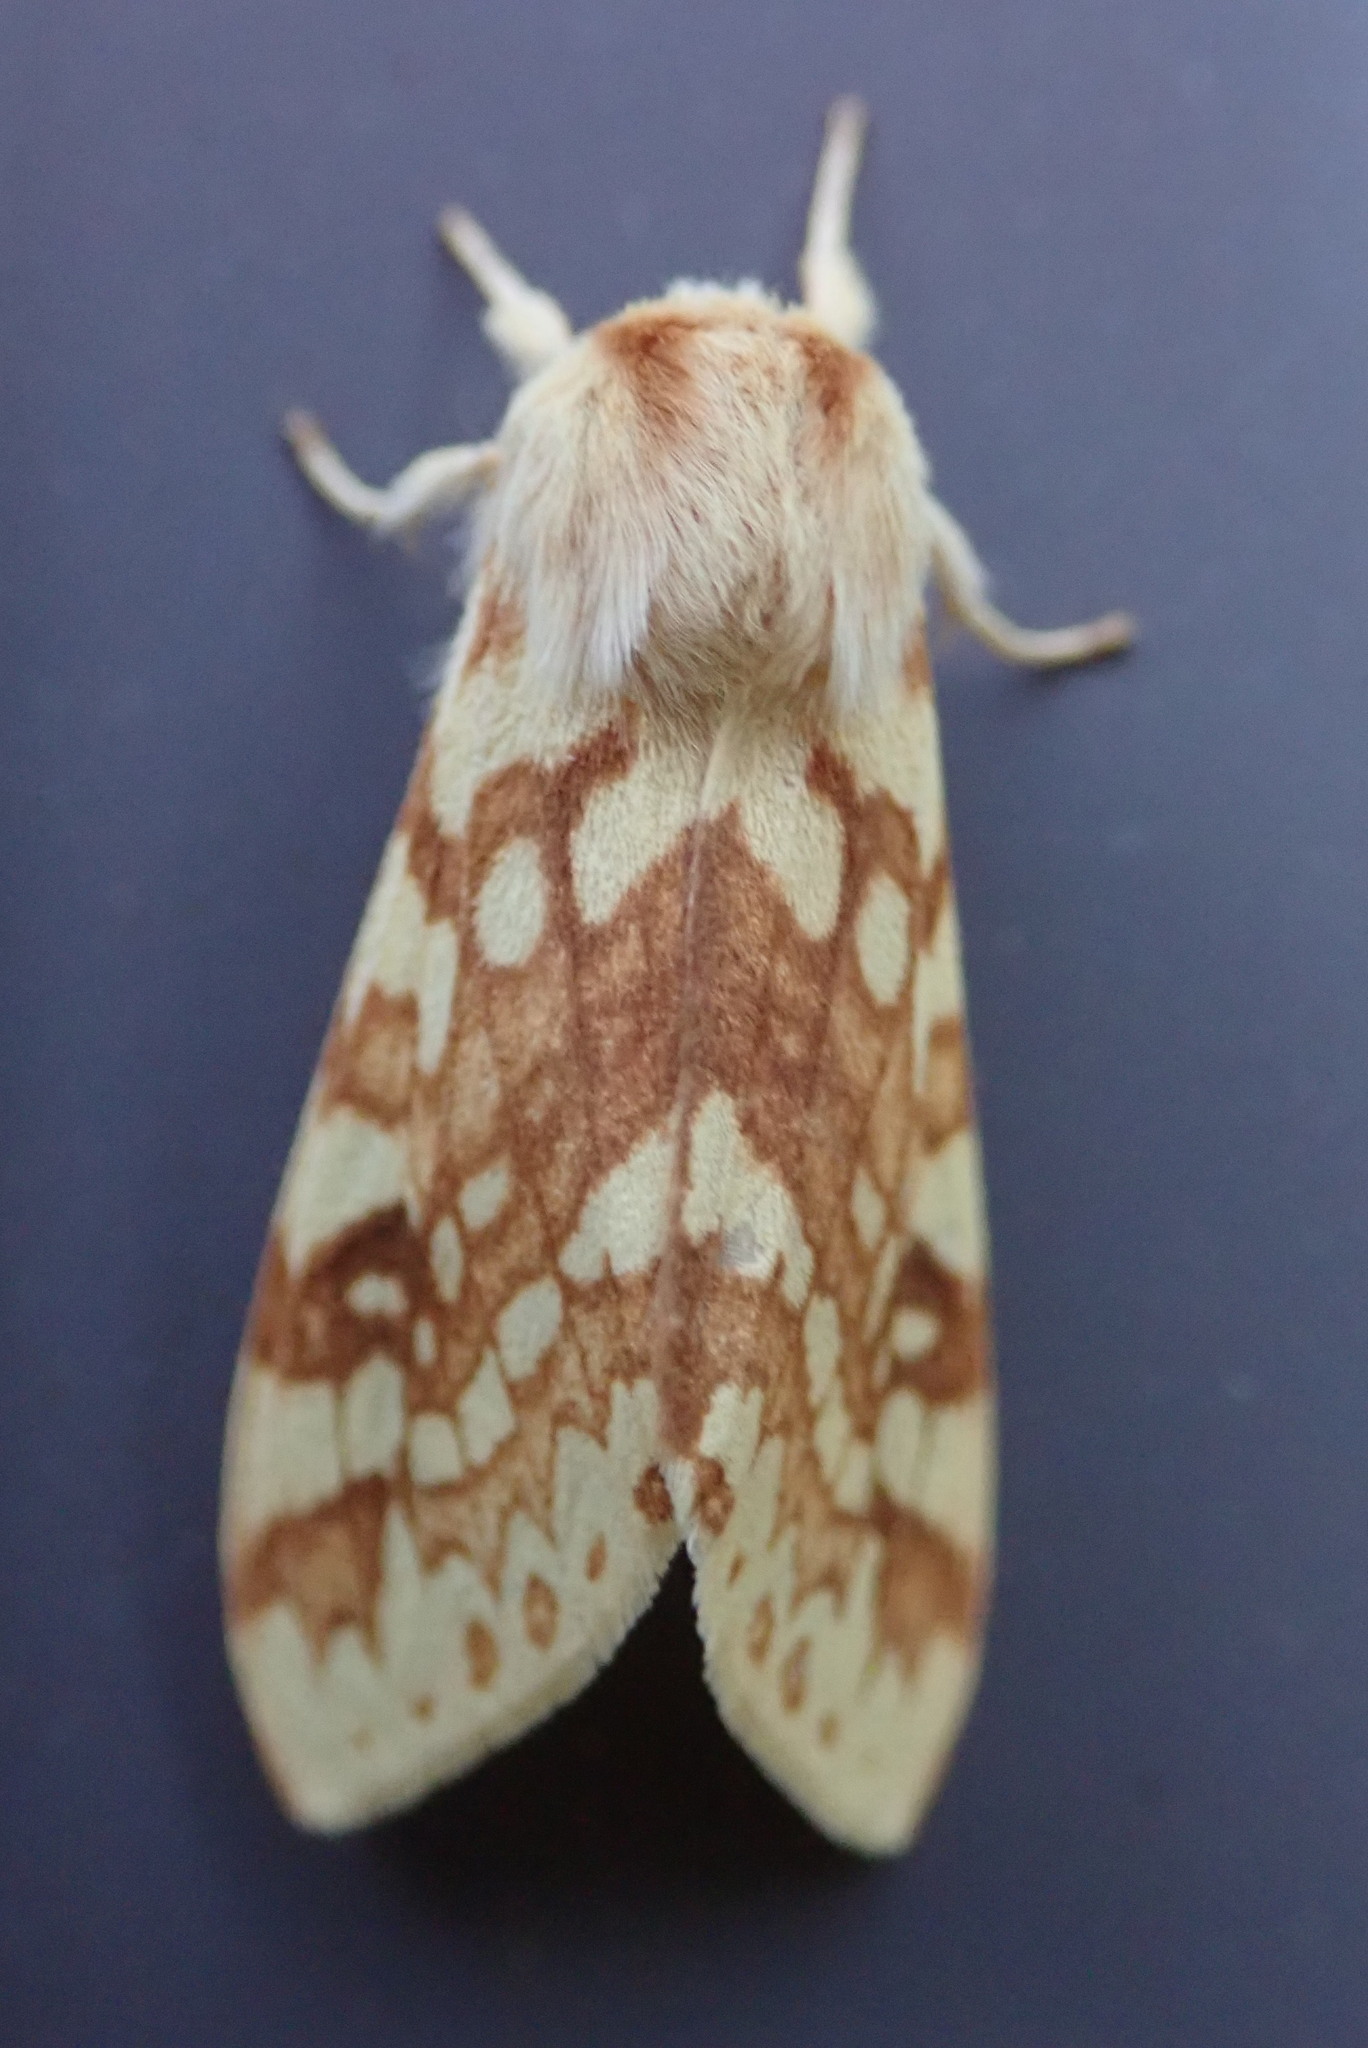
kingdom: Animalia
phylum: Arthropoda
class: Insecta
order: Lepidoptera
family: Erebidae
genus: Lophocampa
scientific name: Lophocampa maculata
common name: Spotted tussock moth
